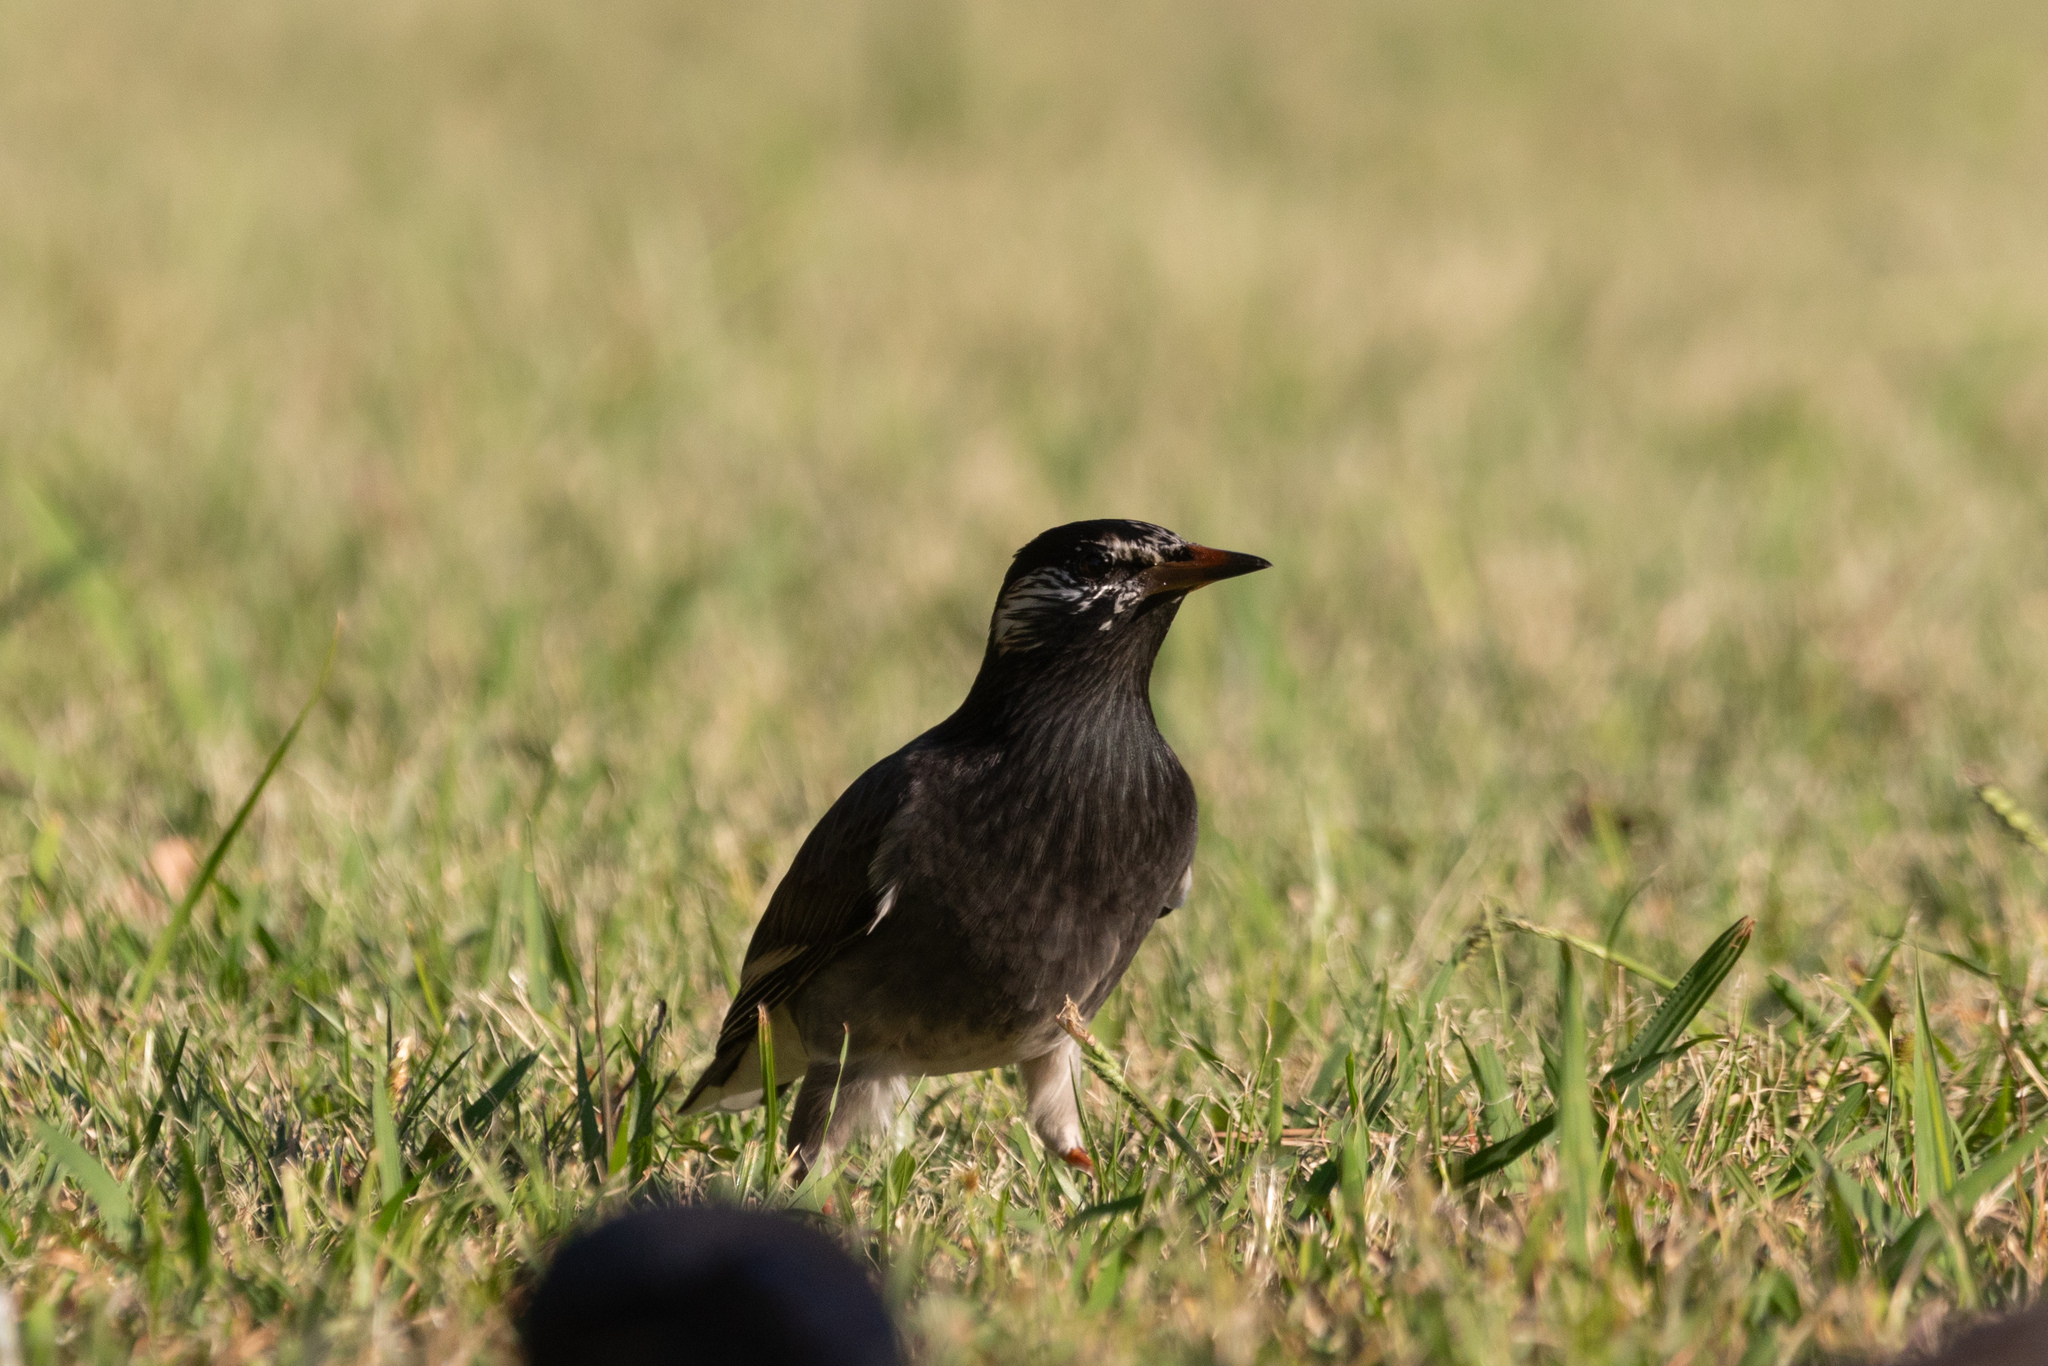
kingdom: Animalia
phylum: Chordata
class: Aves
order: Passeriformes
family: Sturnidae
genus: Spodiopsar
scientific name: Spodiopsar cineraceus
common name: White-cheeked starling
